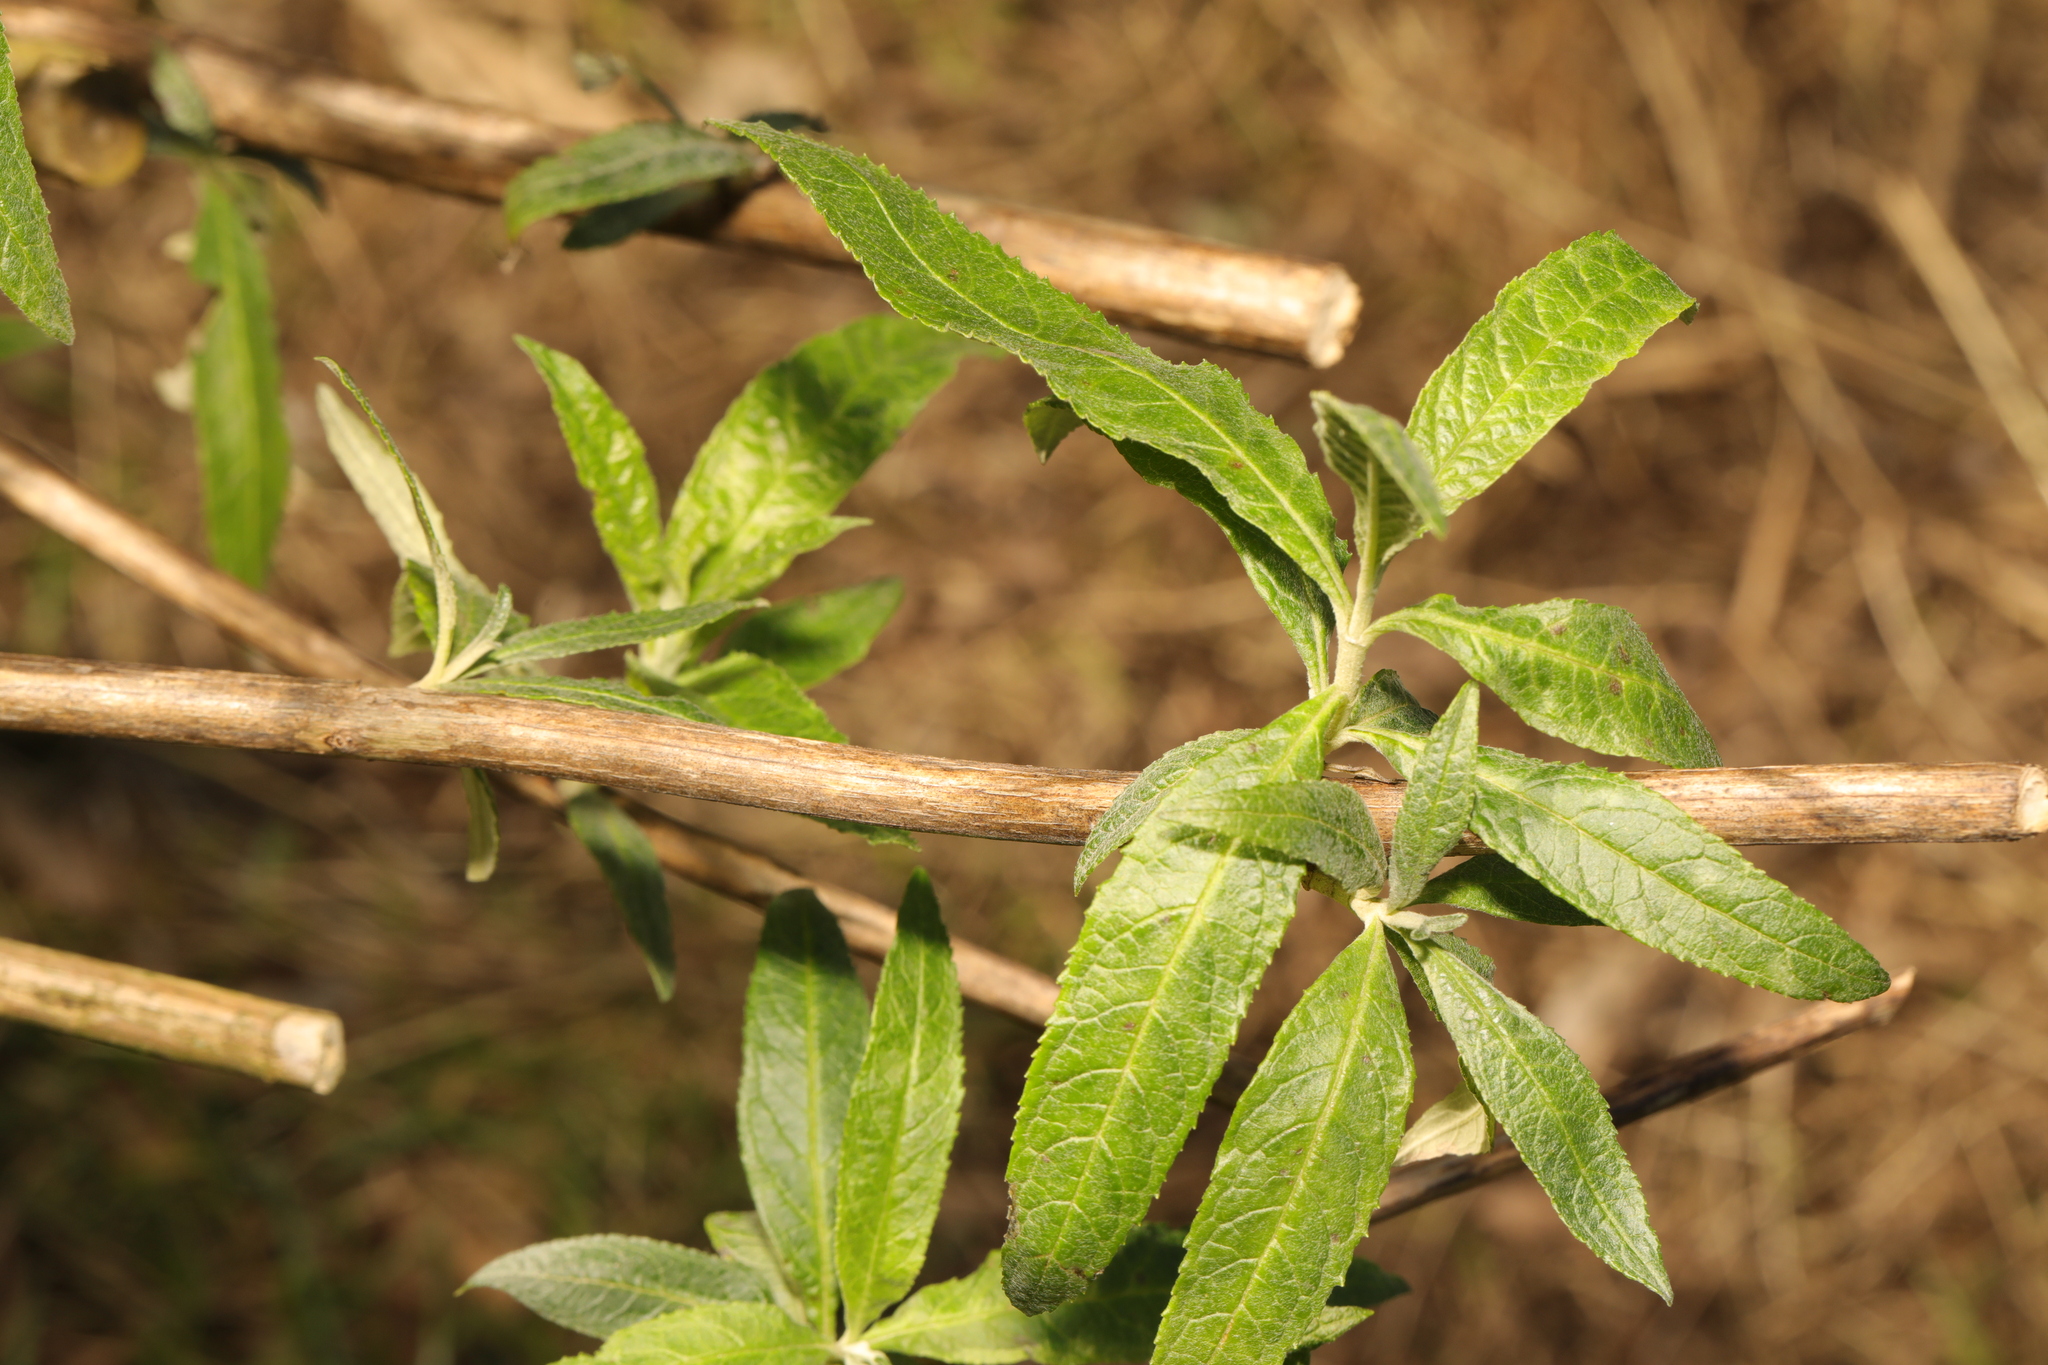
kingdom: Plantae
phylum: Tracheophyta
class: Magnoliopsida
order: Lamiales
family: Scrophulariaceae
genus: Buddleja
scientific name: Buddleja davidii
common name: Butterfly-bush
